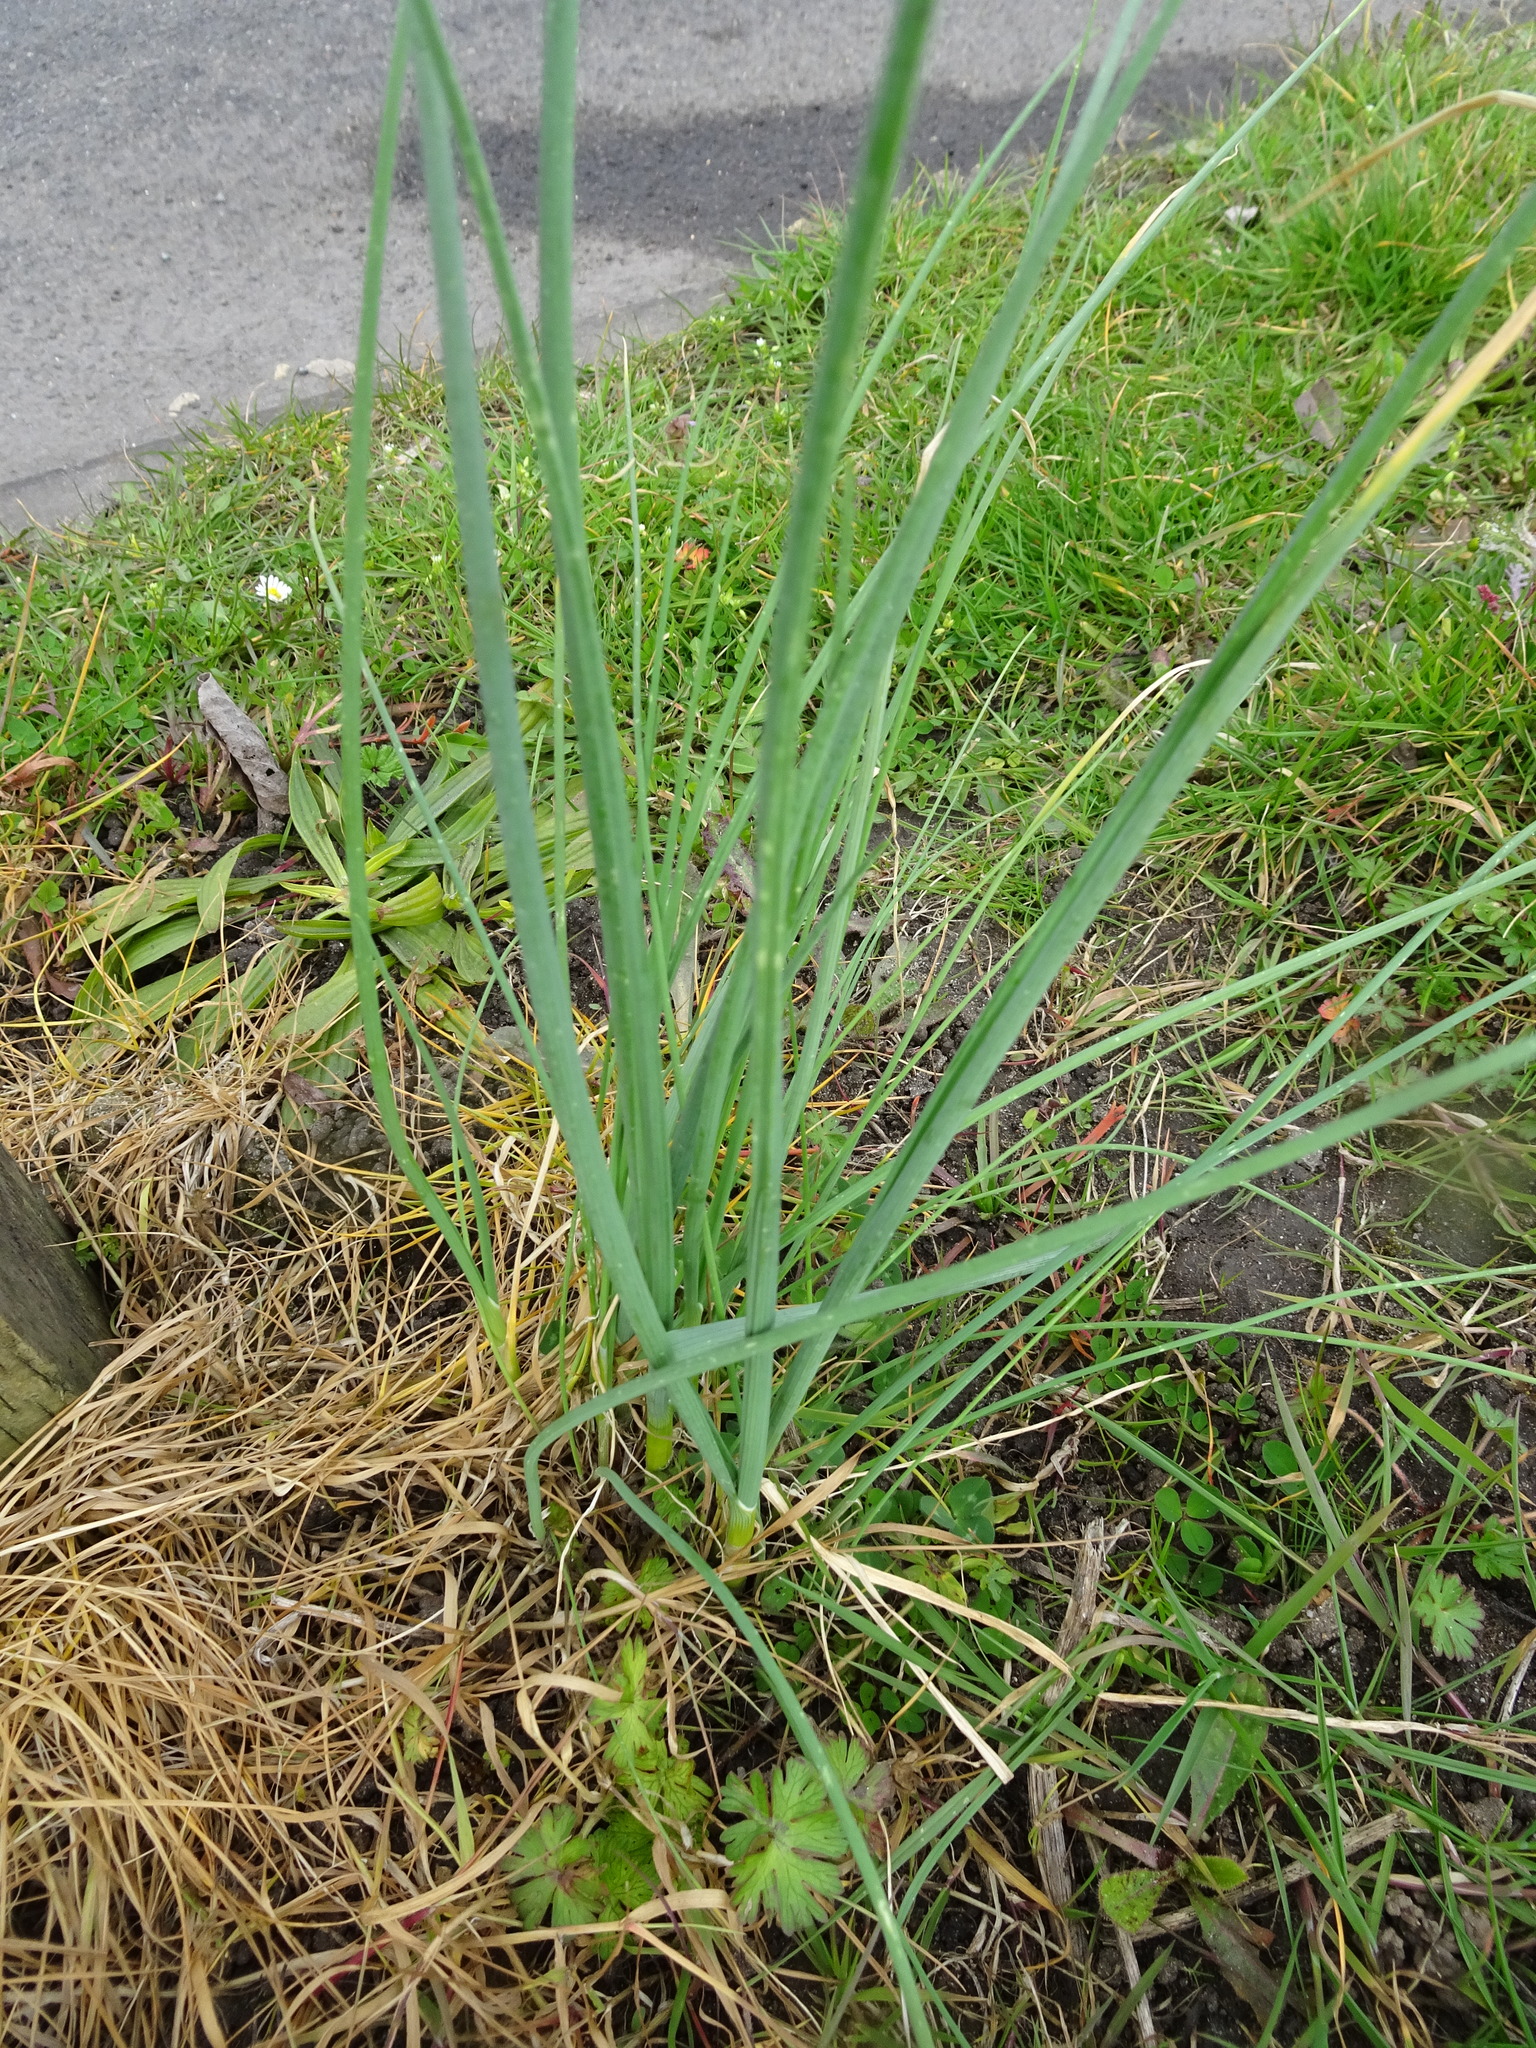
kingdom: Plantae
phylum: Tracheophyta
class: Liliopsida
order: Asparagales
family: Amaryllidaceae
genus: Allium
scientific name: Allium vineale
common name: Crow garlic
